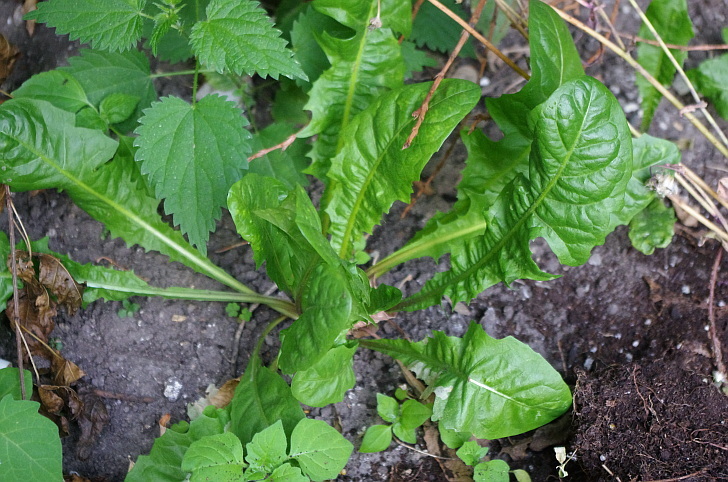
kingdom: Plantae
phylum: Tracheophyta
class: Magnoliopsida
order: Asterales
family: Asteraceae
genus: Taraxacum
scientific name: Taraxacum officinale
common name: Common dandelion
